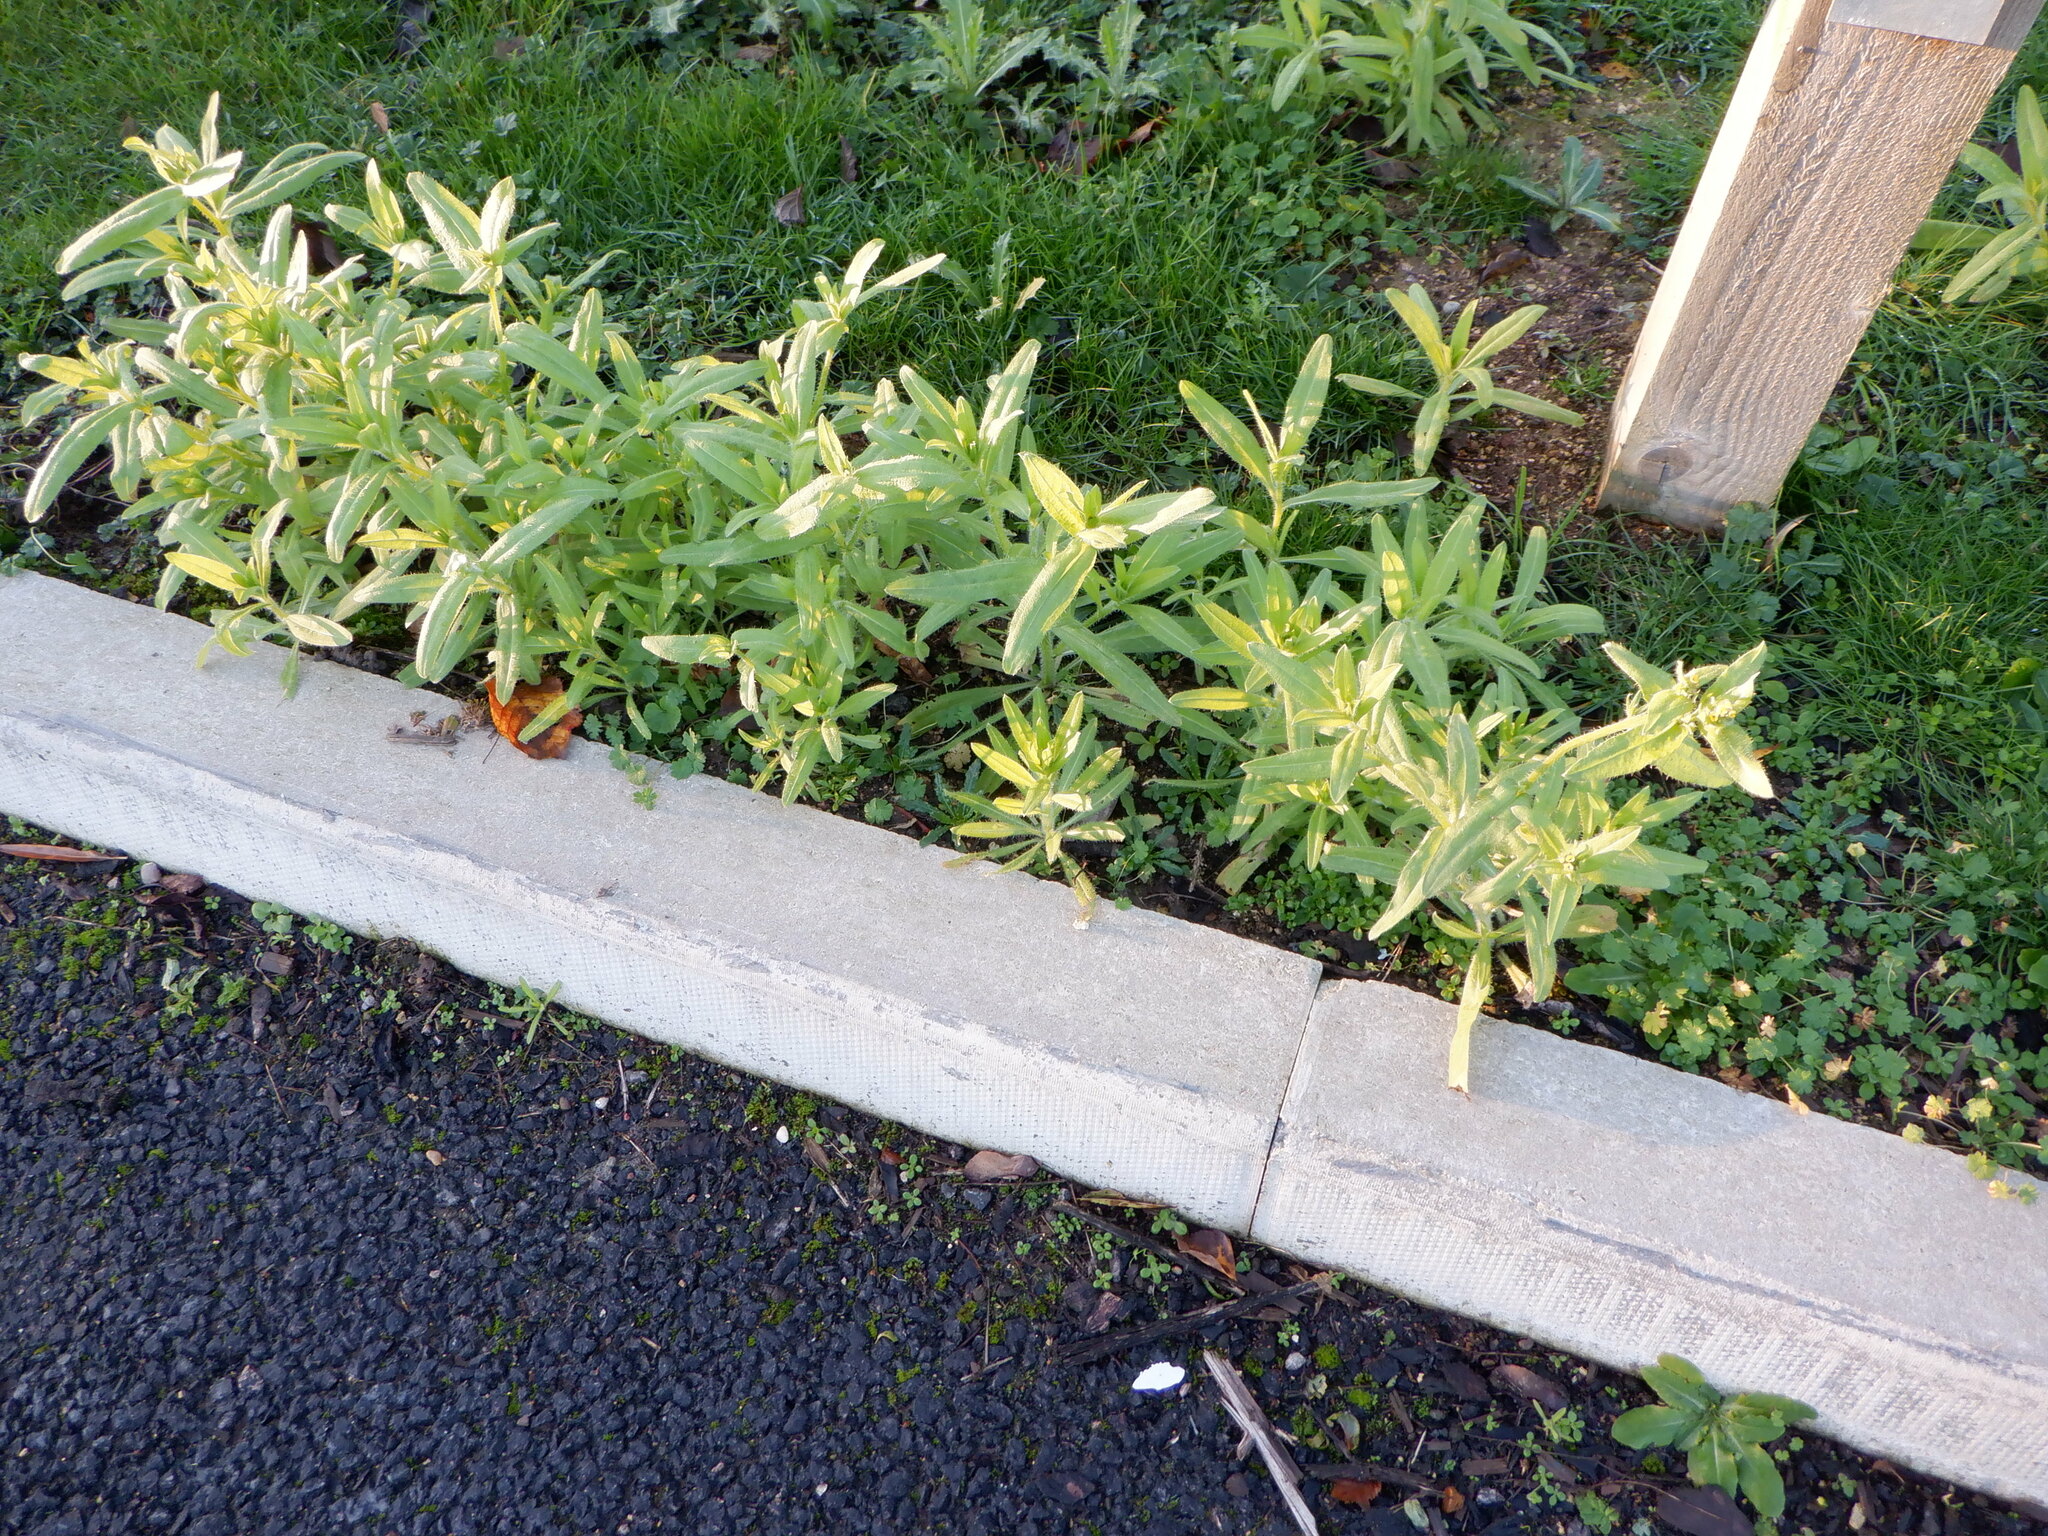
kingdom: Plantae
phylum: Tracheophyta
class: Magnoliopsida
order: Boraginales
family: Boraginaceae
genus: Amsinckia
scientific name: Amsinckia menziesii
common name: Menzies' fiddleneck
